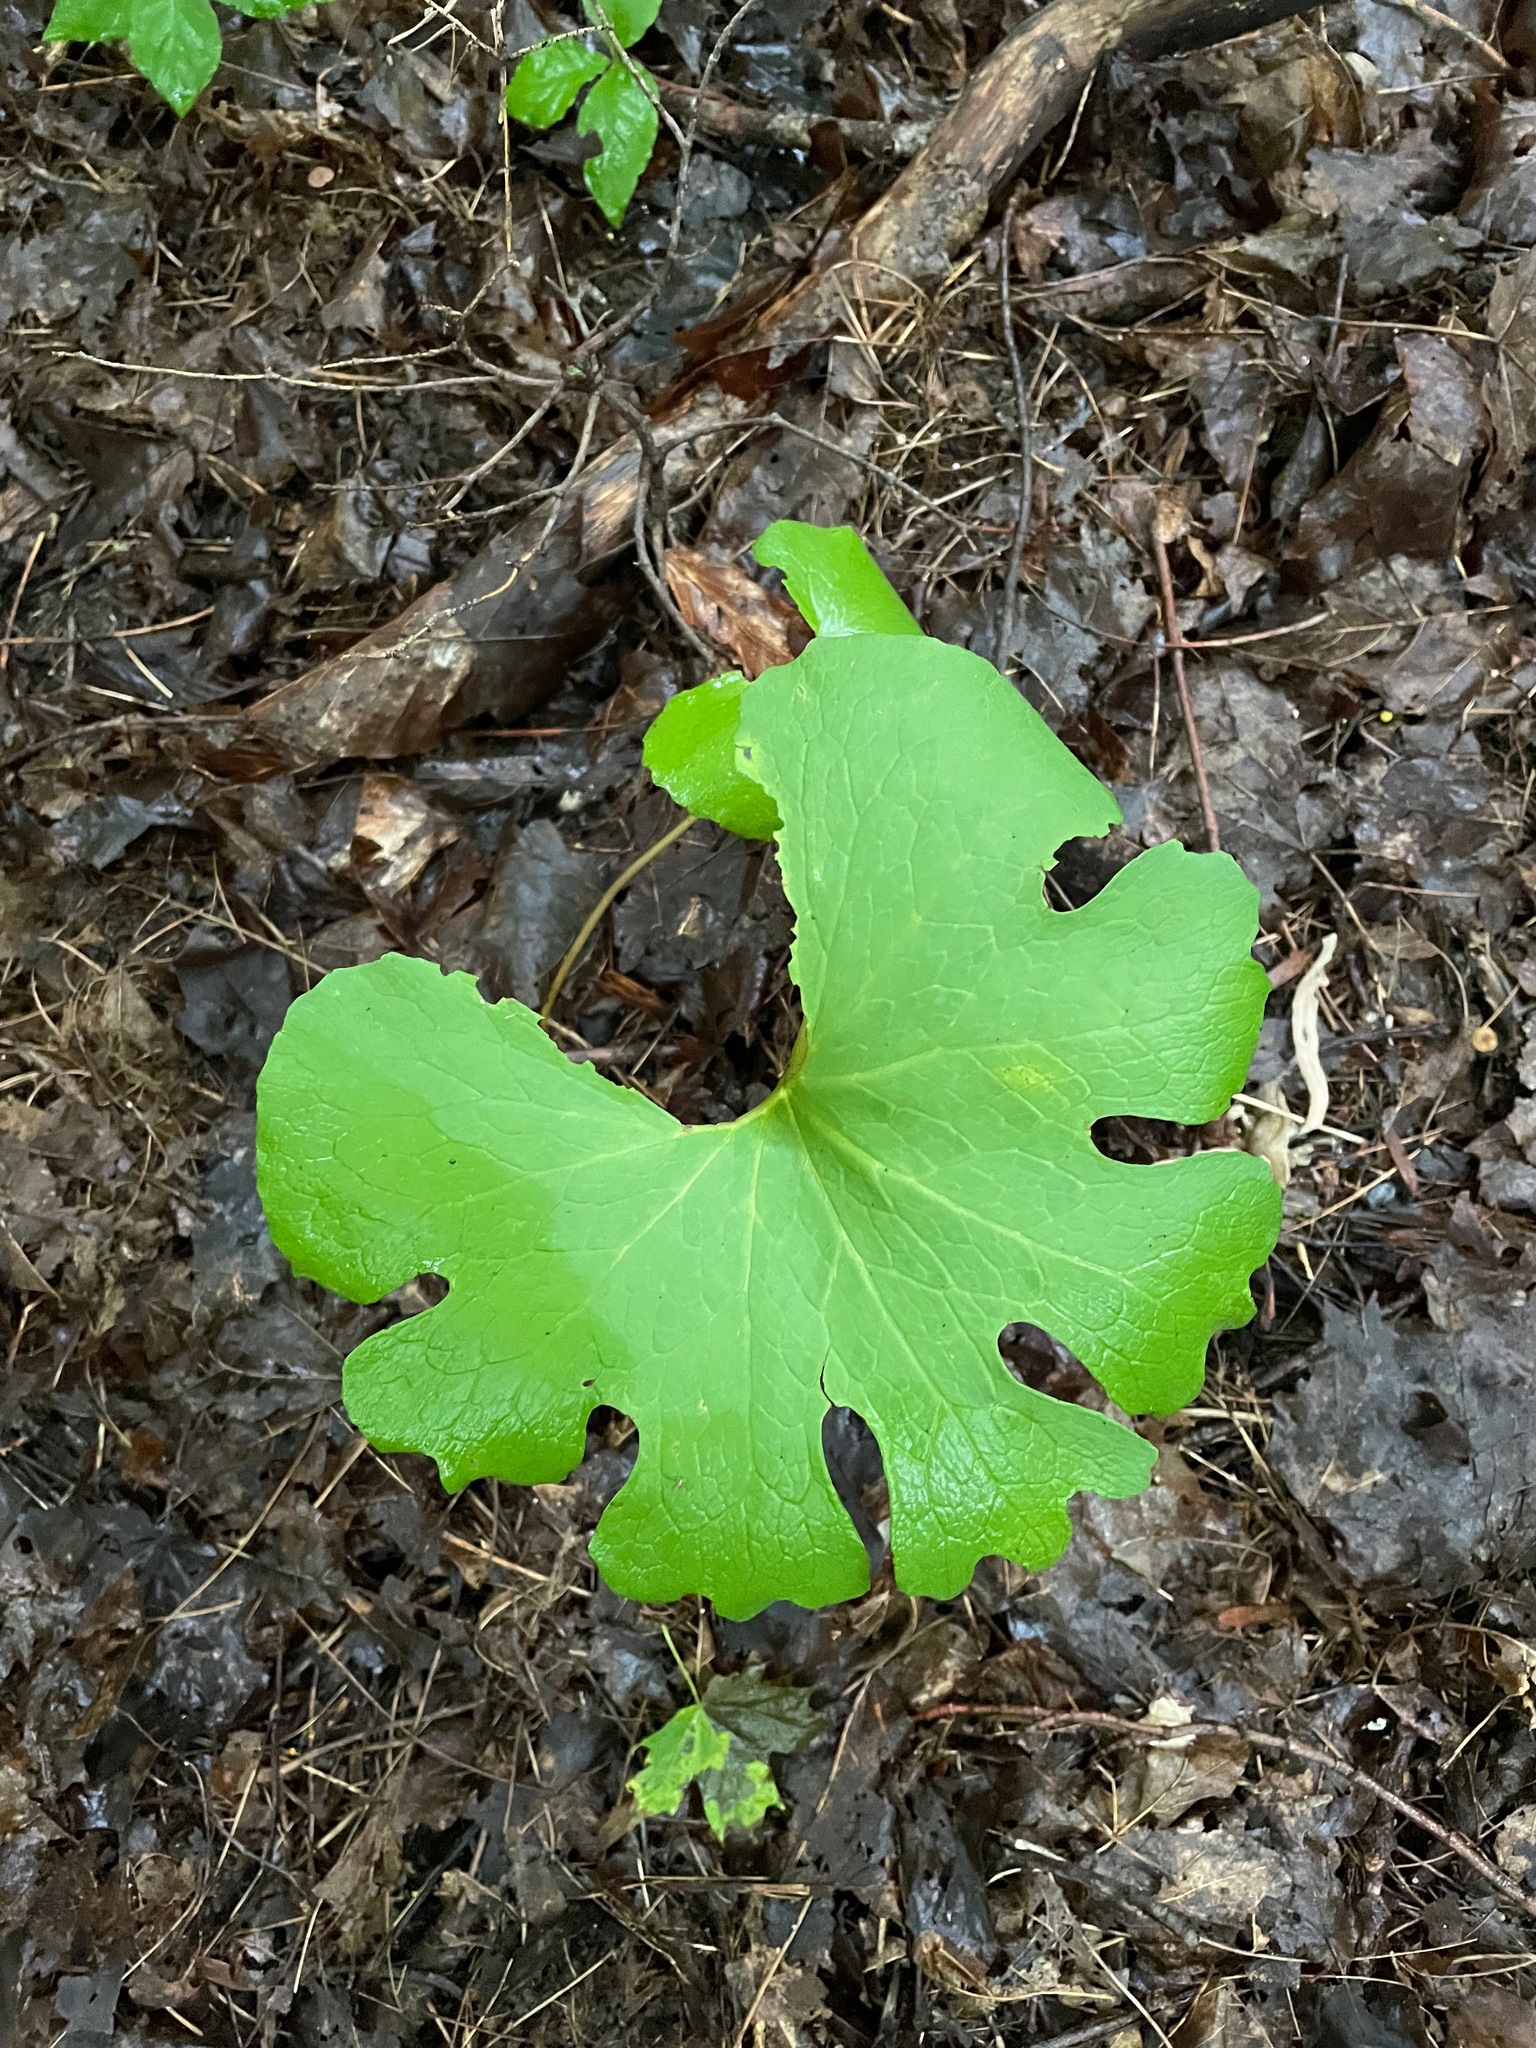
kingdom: Plantae
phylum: Tracheophyta
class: Magnoliopsida
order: Ranunculales
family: Papaveraceae
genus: Sanguinaria
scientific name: Sanguinaria canadensis
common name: Bloodroot
